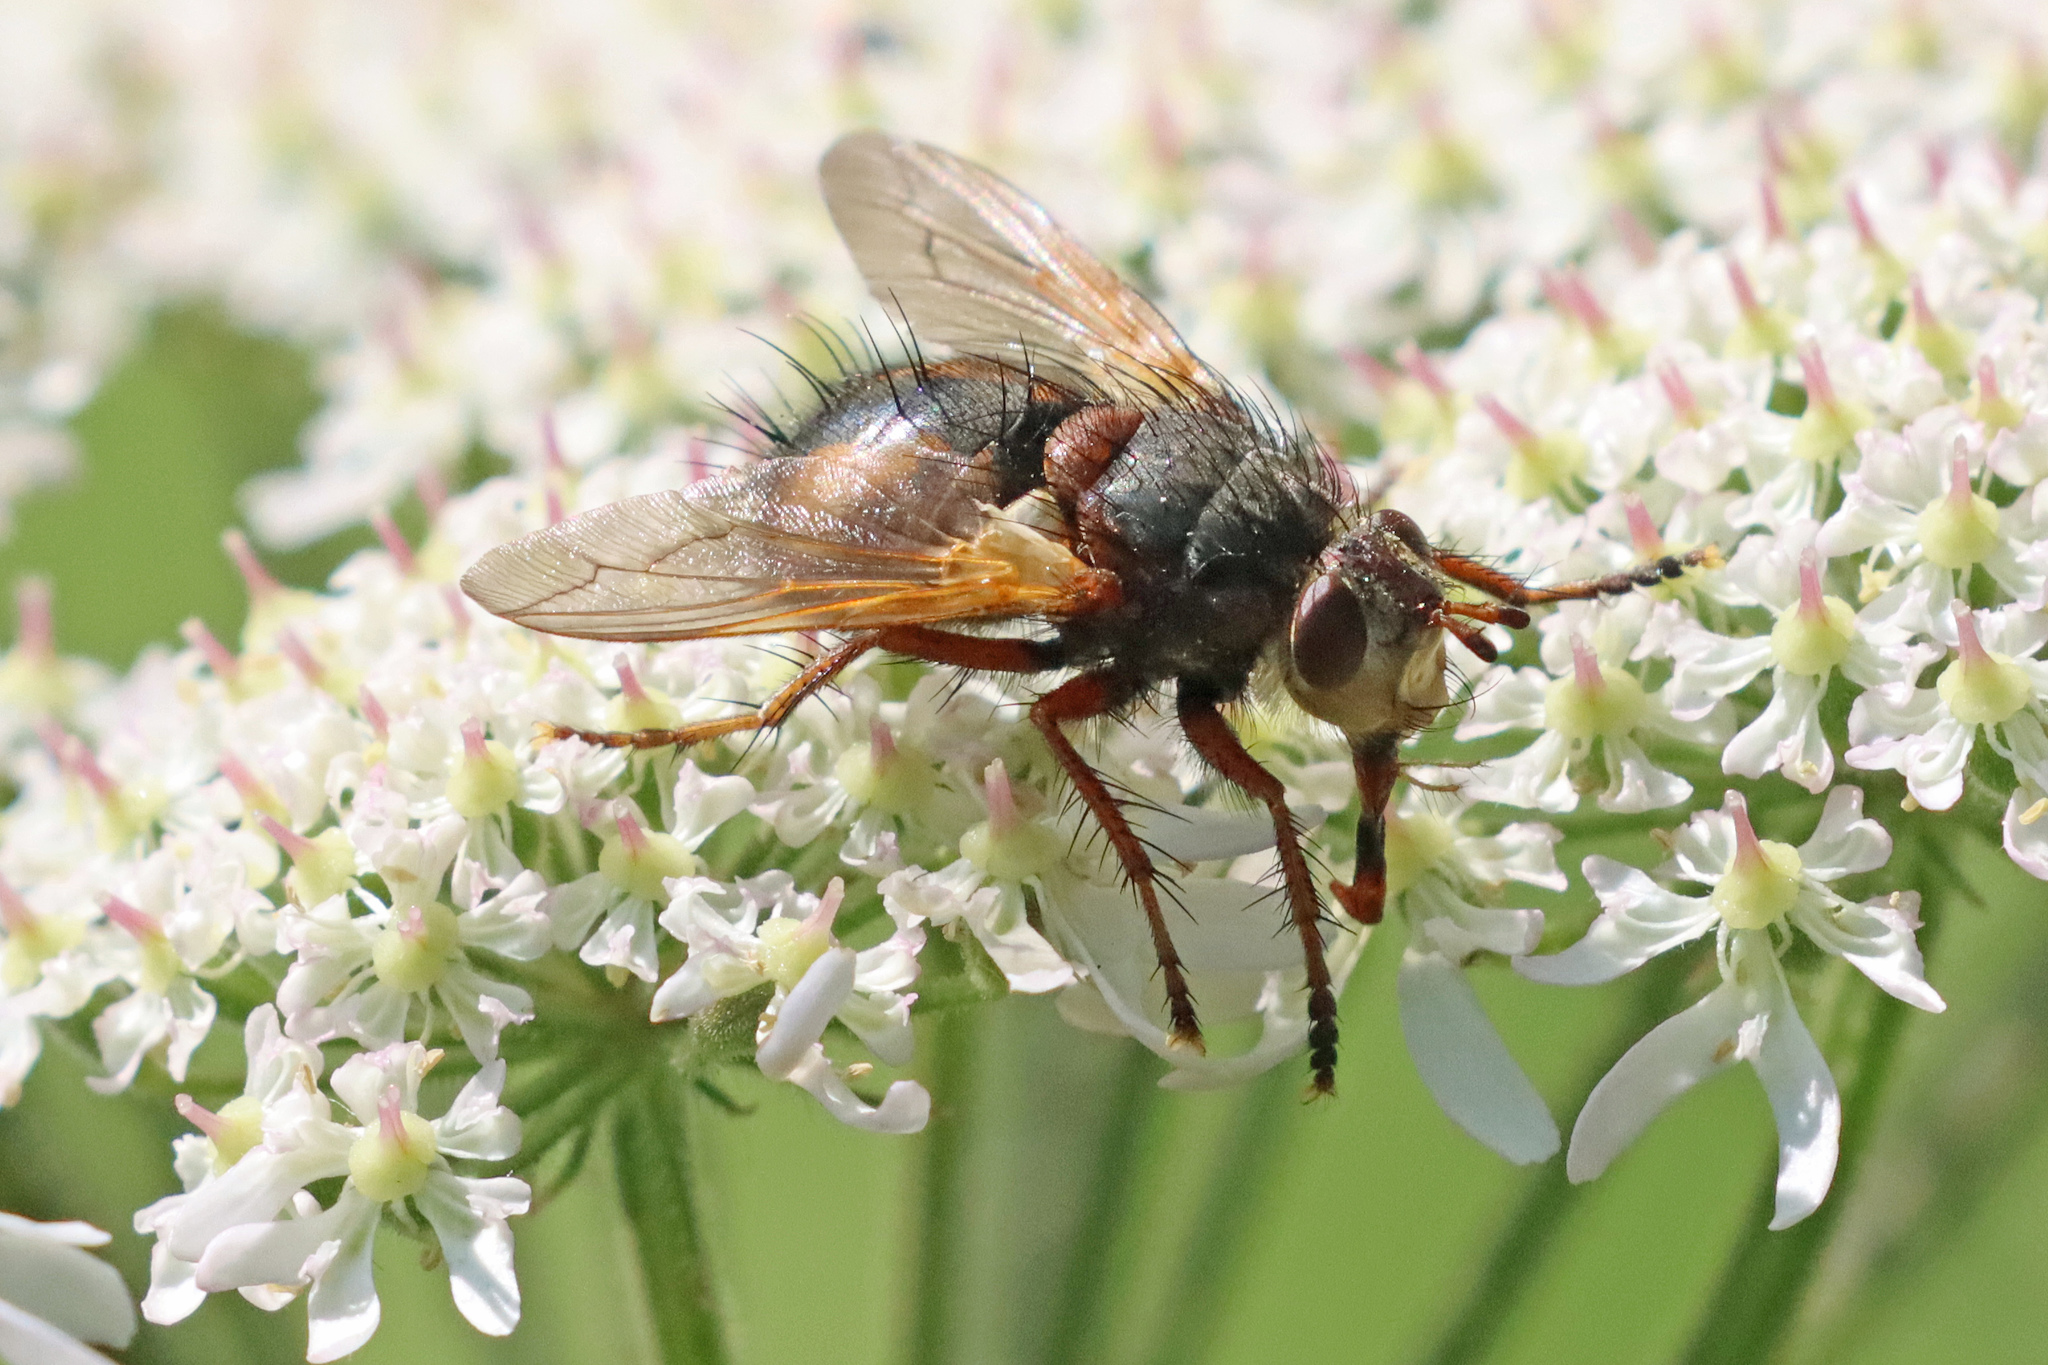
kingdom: Animalia
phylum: Arthropoda
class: Insecta
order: Diptera
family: Tachinidae
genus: Tachina
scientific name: Tachina fera
